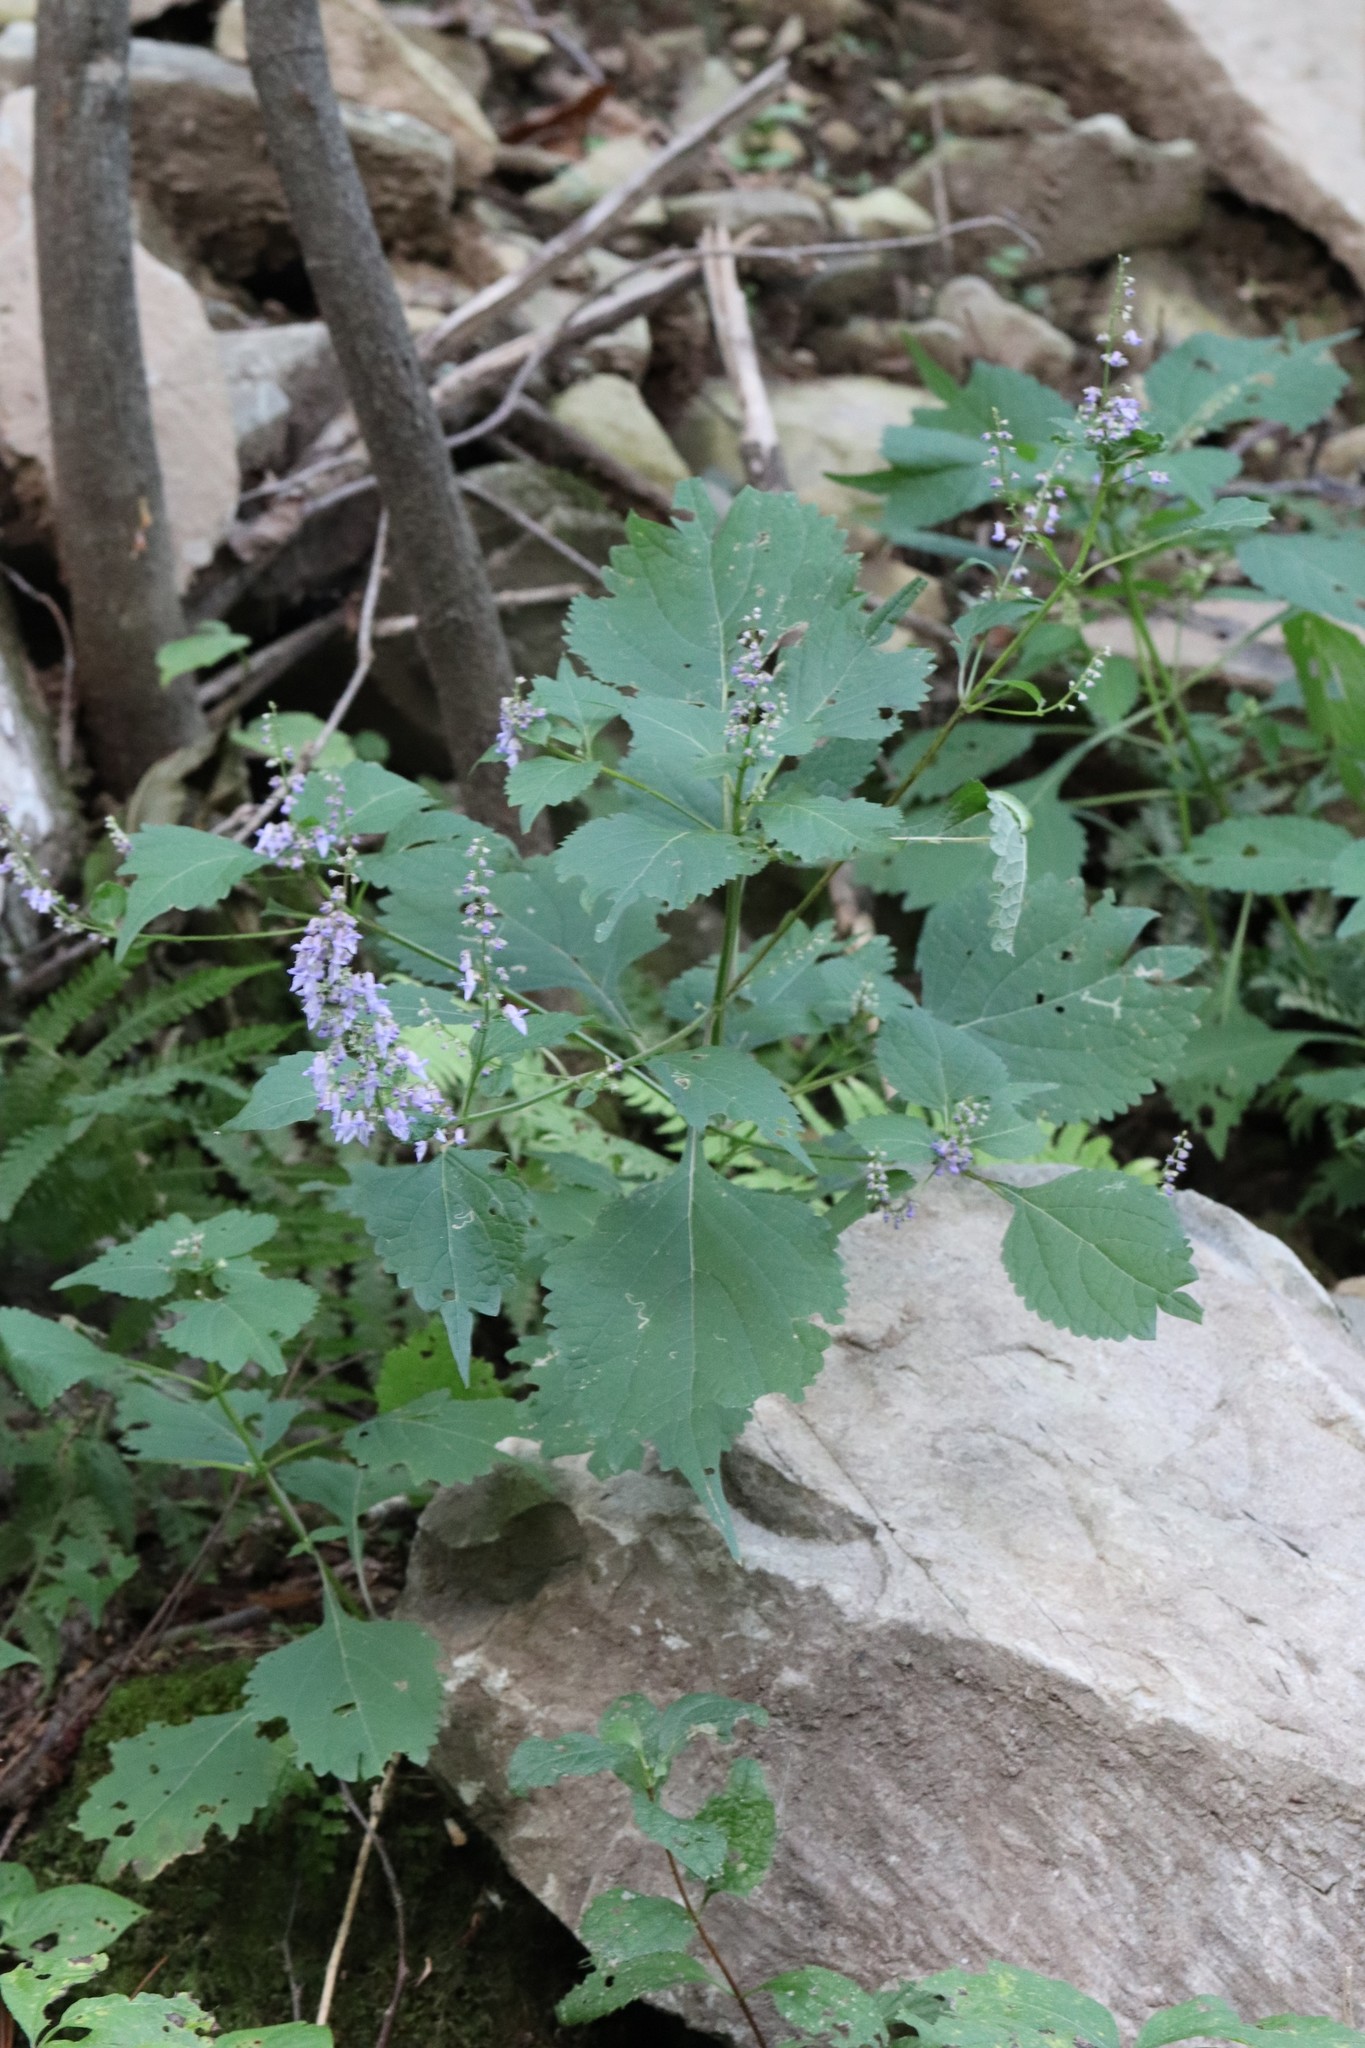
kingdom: Plantae
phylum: Tracheophyta
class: Magnoliopsida
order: Lamiales
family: Lamiaceae
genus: Isodon
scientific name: Isodon excisus
